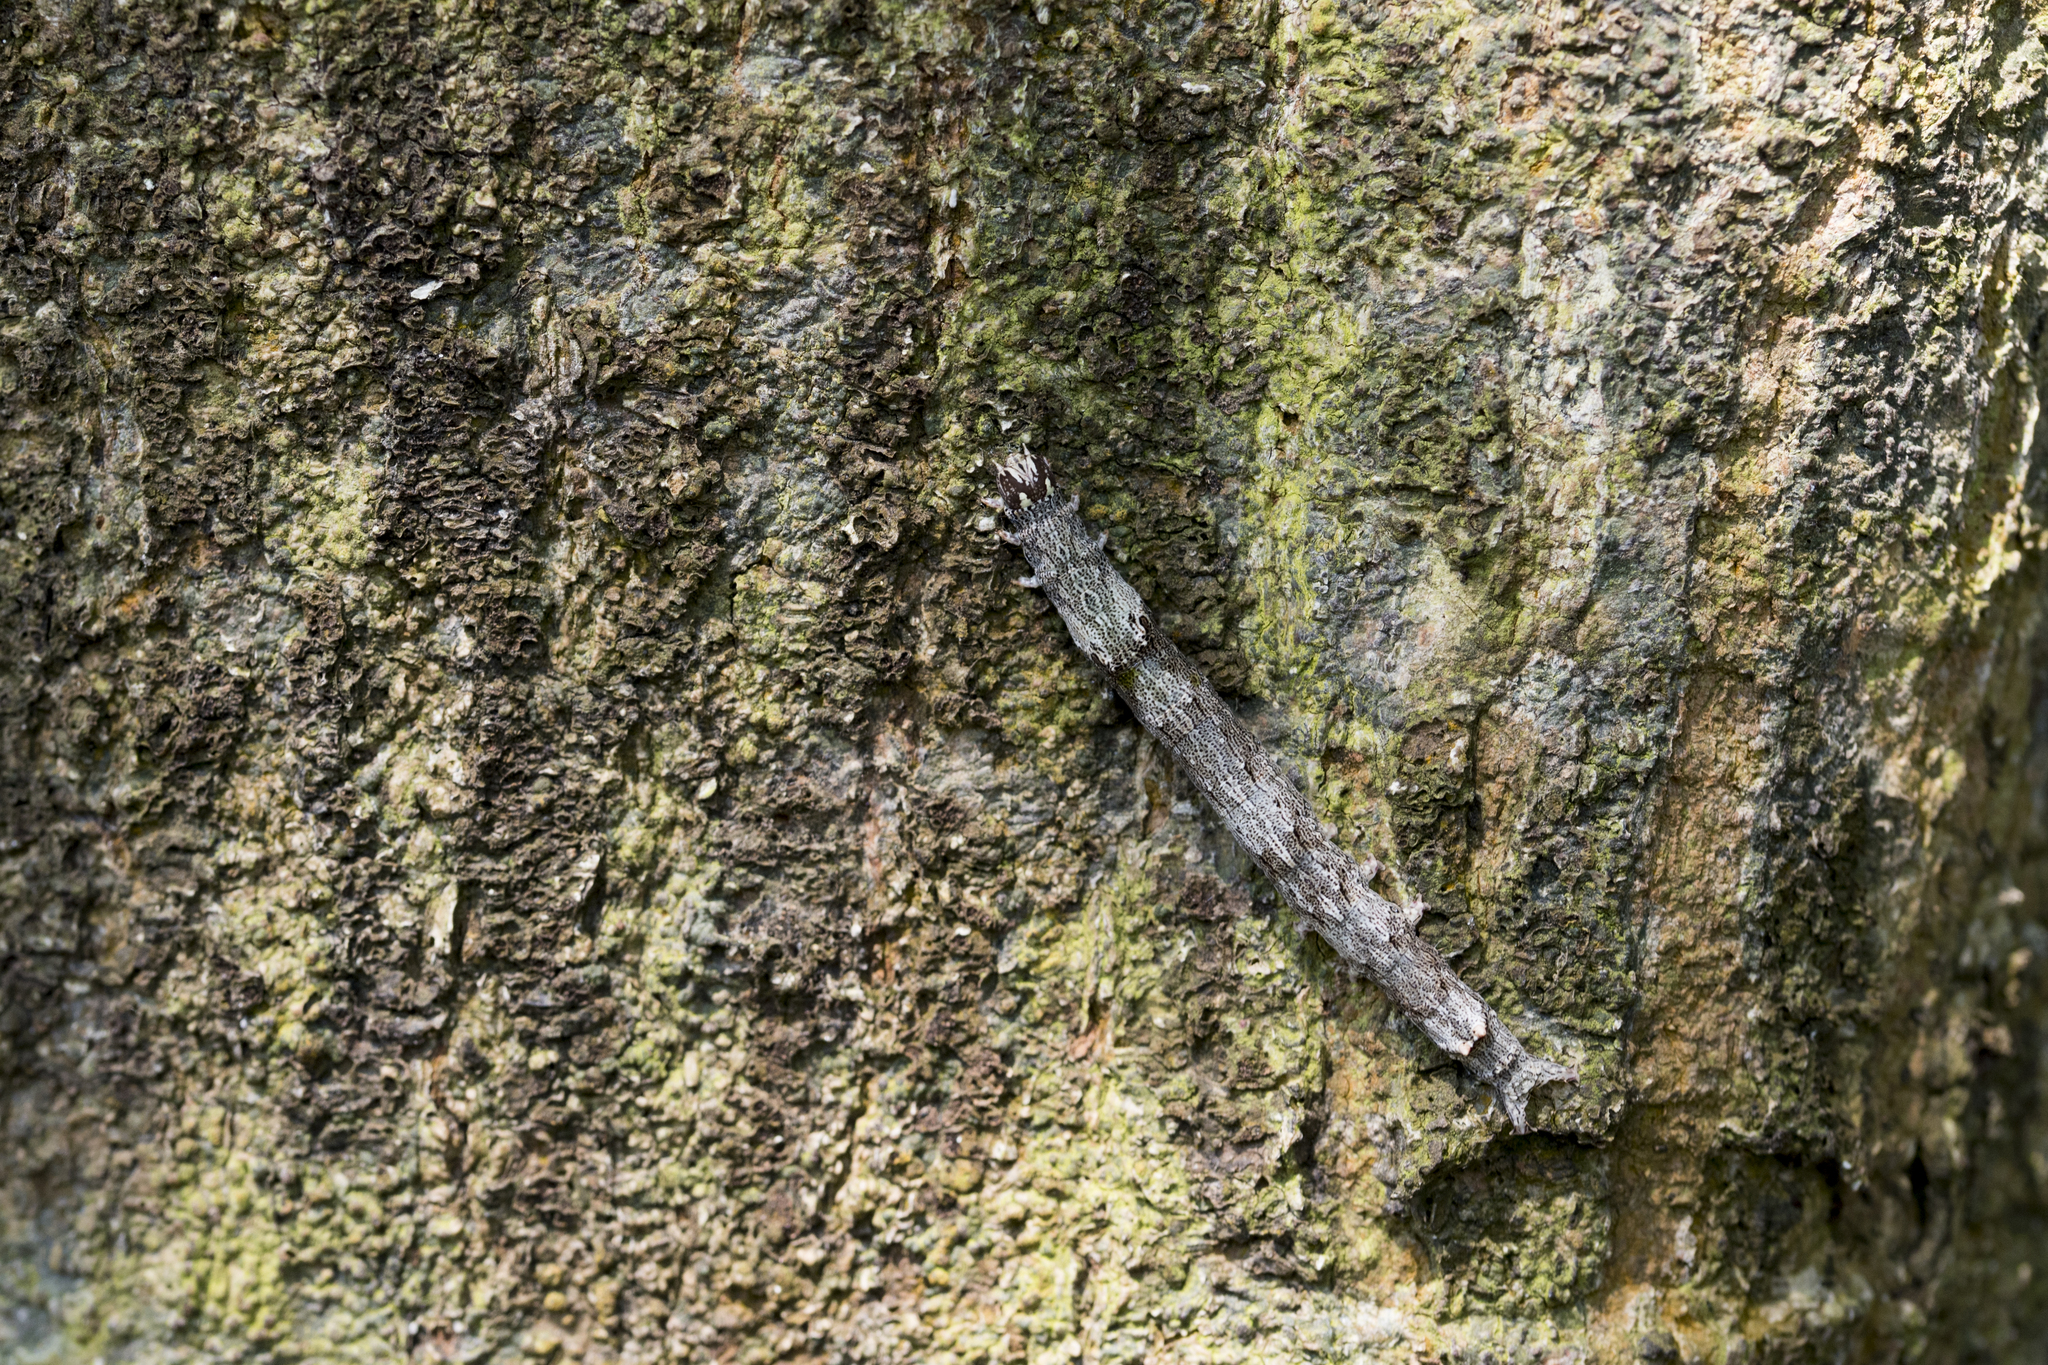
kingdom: Animalia
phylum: Arthropoda
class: Insecta
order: Lepidoptera
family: Erebidae
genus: Achaea
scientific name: Achaea serva
